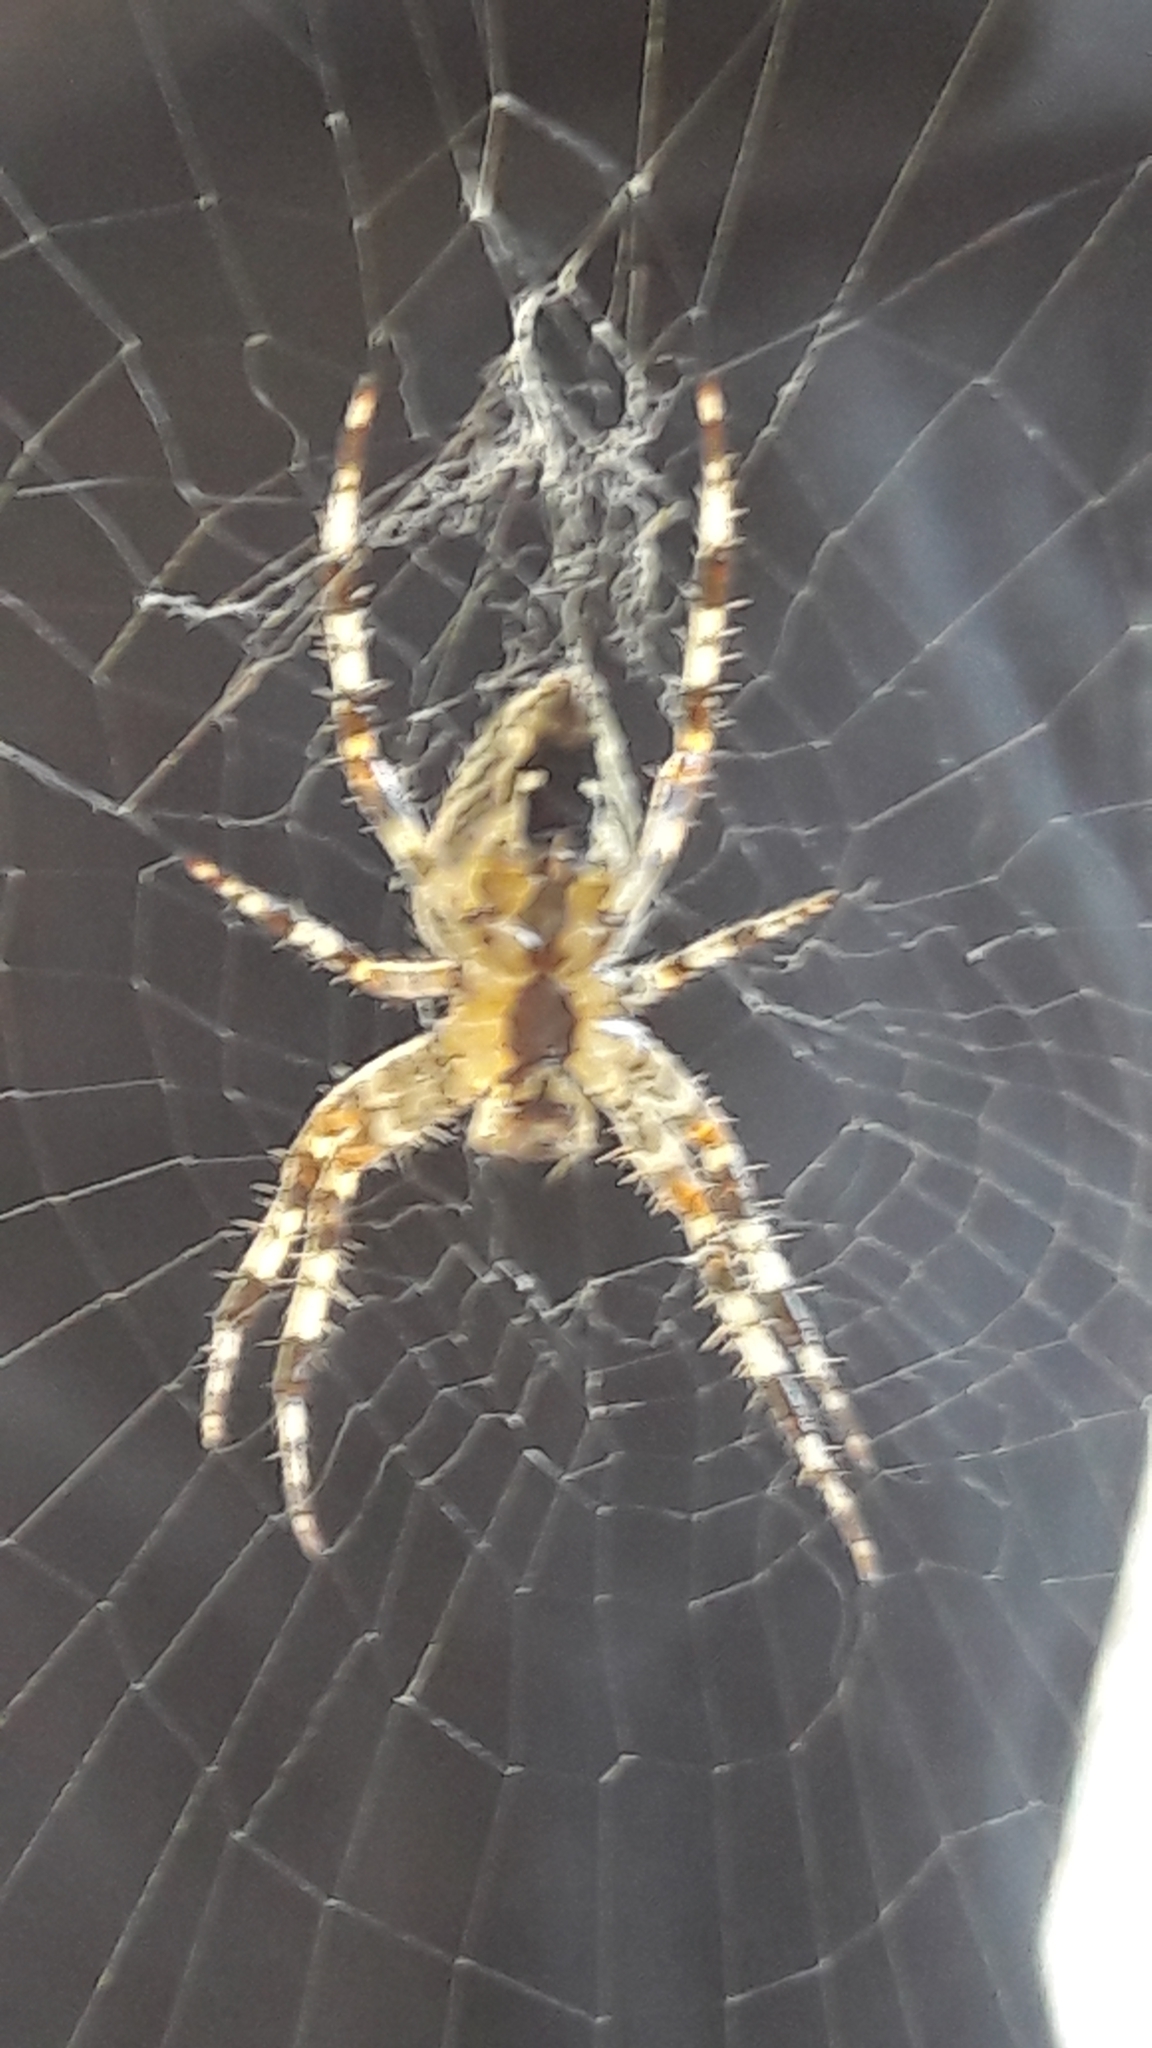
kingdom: Animalia
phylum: Arthropoda
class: Arachnida
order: Araneae
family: Araneidae
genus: Araneus
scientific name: Araneus diadematus
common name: Cross orbweaver
